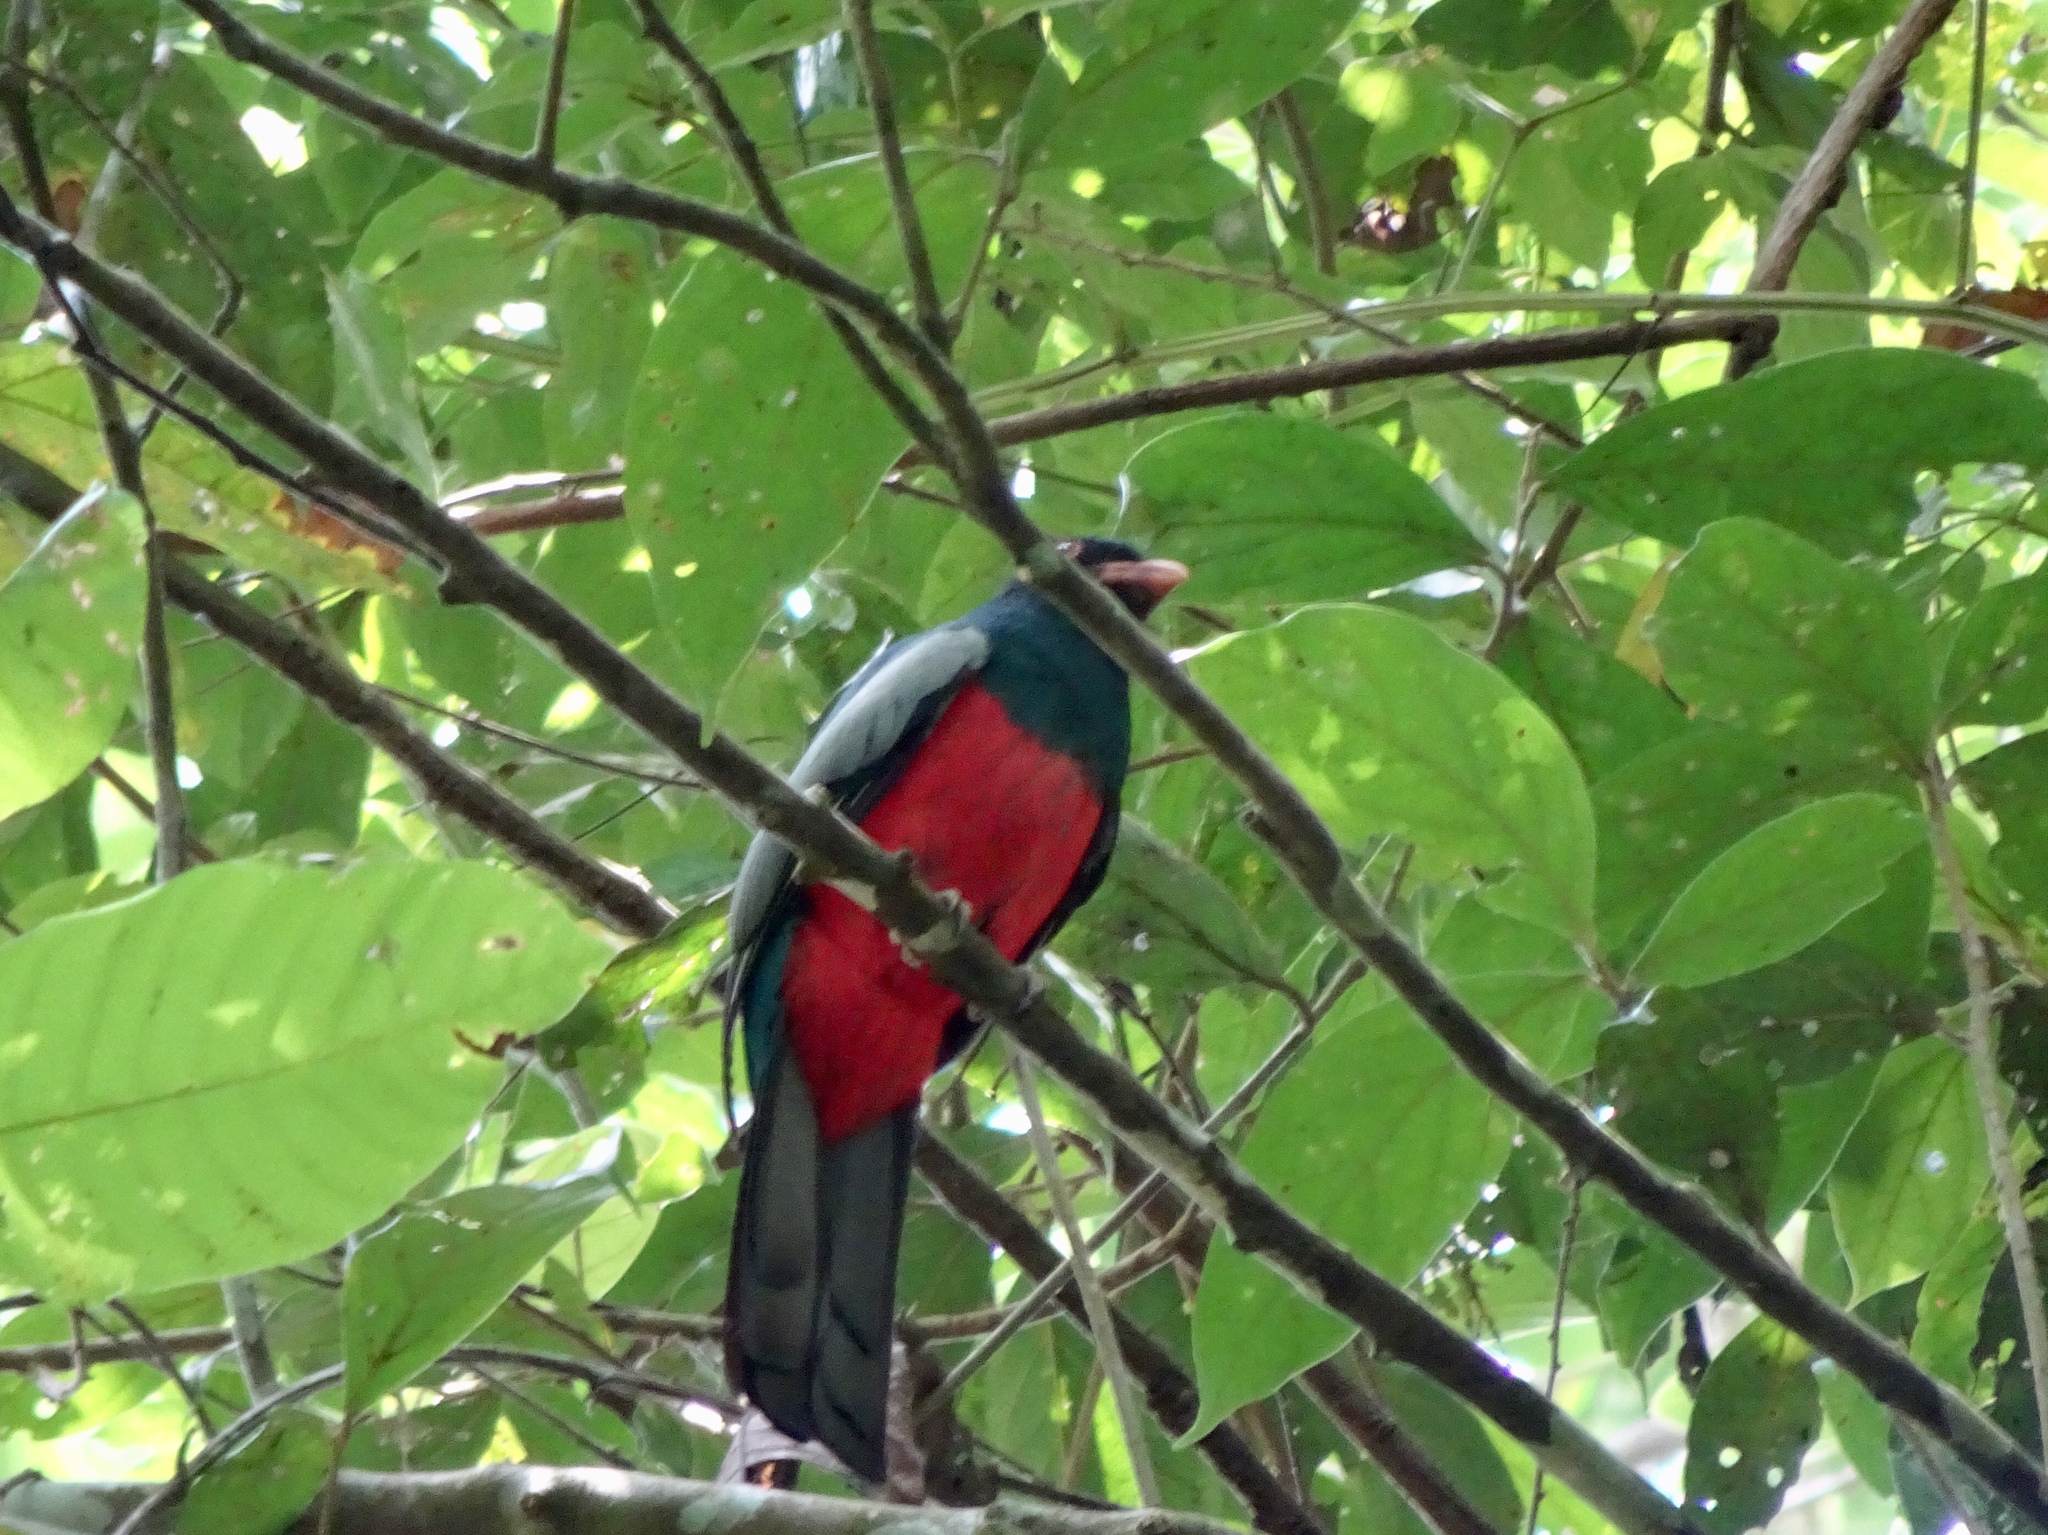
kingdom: Animalia
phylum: Chordata
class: Aves
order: Trogoniformes
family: Trogonidae
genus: Trogon
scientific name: Trogon massena
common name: Slaty-tailed trogon
